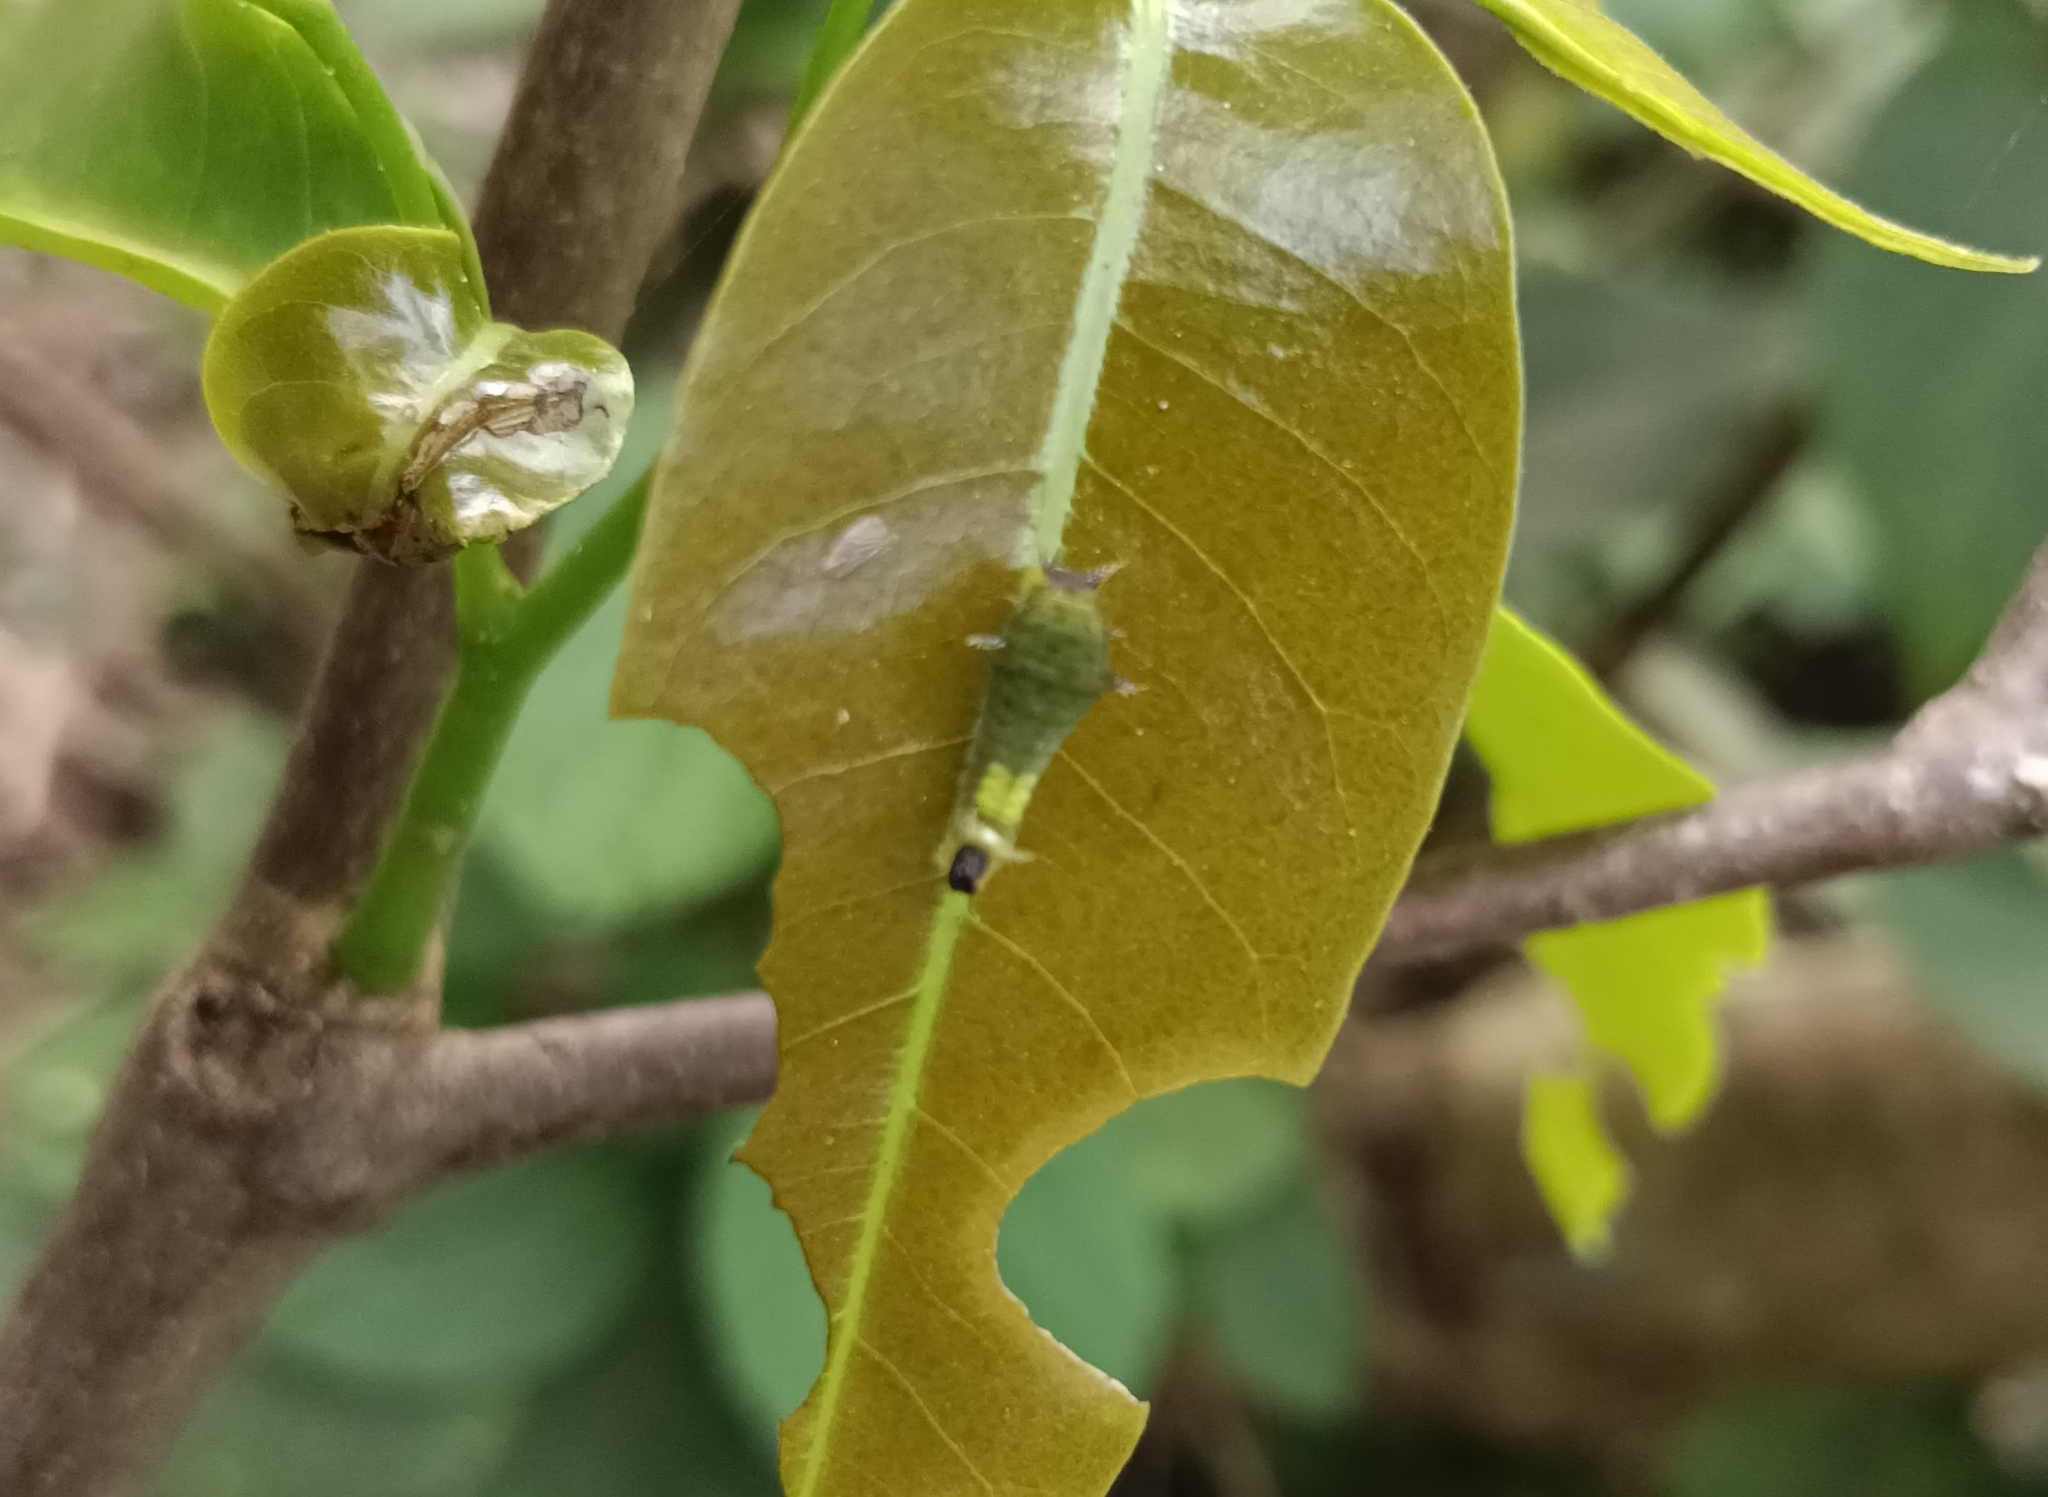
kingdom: Animalia
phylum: Arthropoda
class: Insecta
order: Lepidoptera
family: Papilionidae
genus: Graphium
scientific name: Graphium agamemnon
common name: Tailed jay
